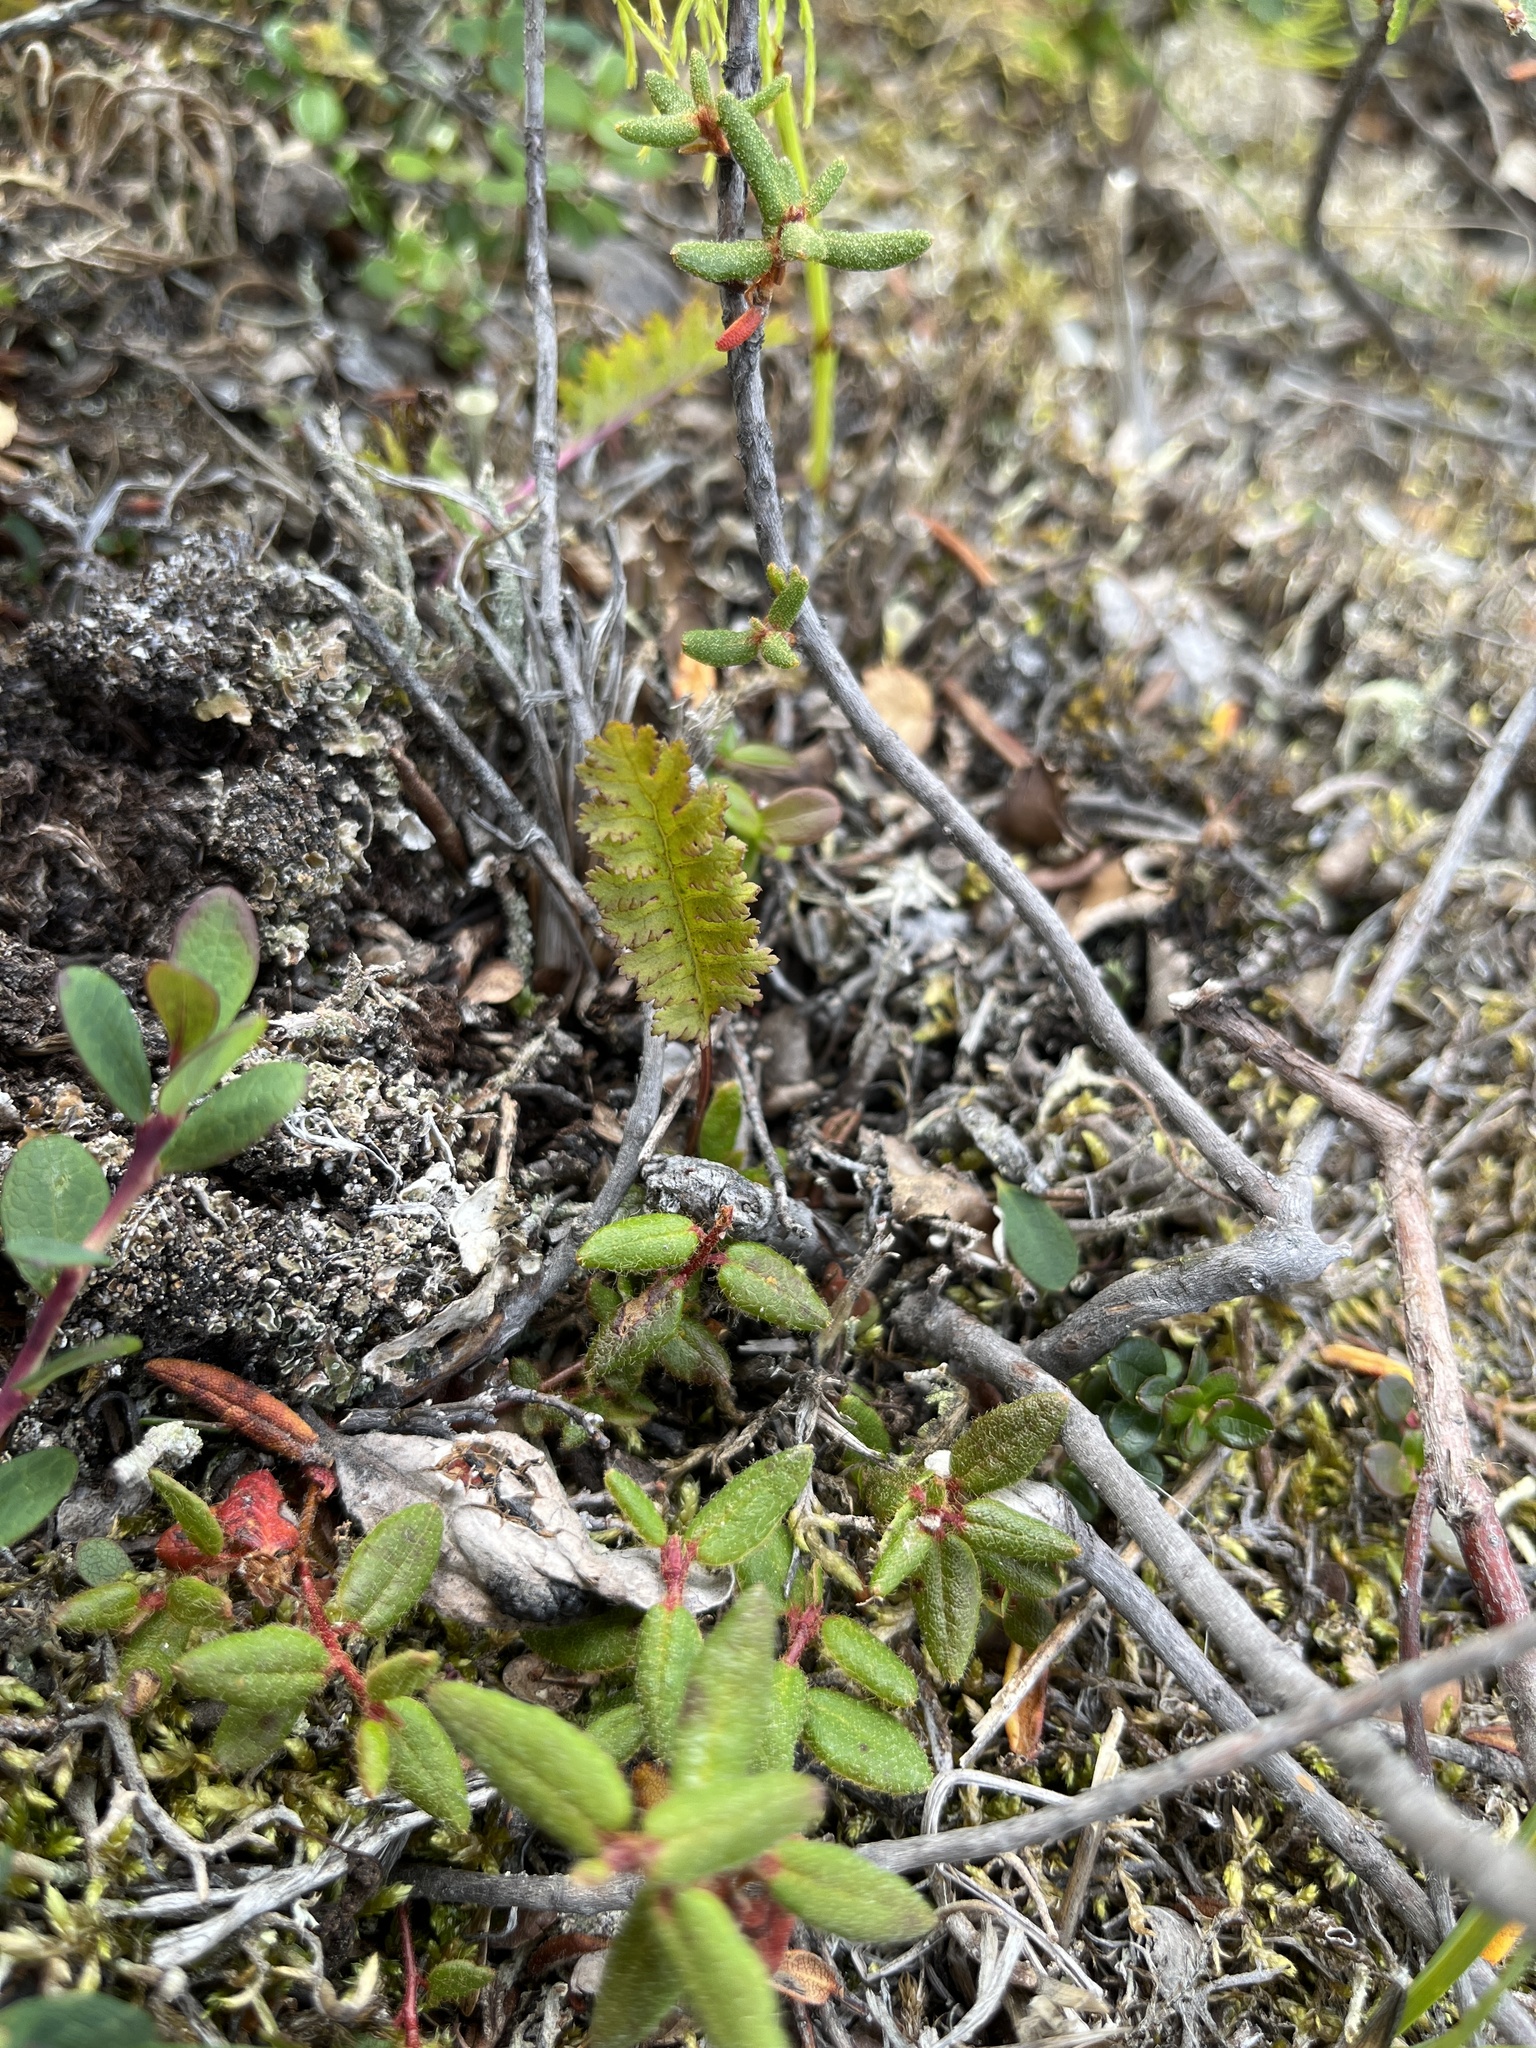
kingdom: Plantae
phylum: Tracheophyta
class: Magnoliopsida
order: Lamiales
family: Orobanchaceae
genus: Pedicularis
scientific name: Pedicularis flammea
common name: Flame-coloured lousewort
